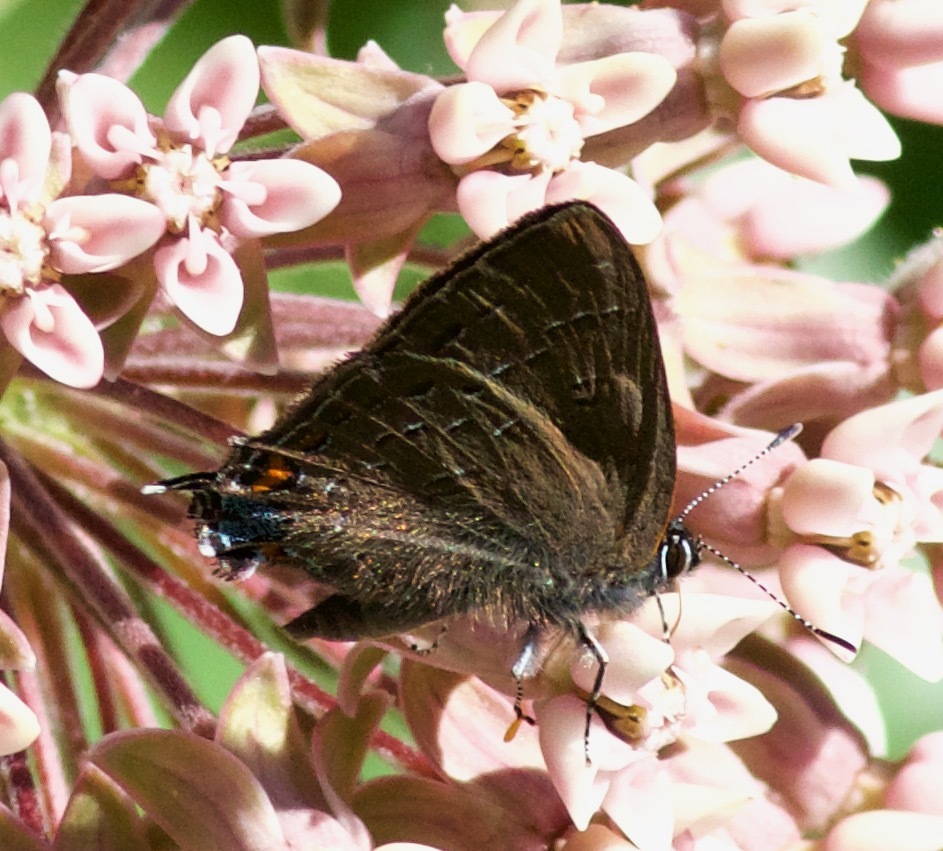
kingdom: Animalia
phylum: Arthropoda
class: Insecta
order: Lepidoptera
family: Lycaenidae
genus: Satyrium
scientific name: Satyrium calanus
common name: Banded hairstreak
